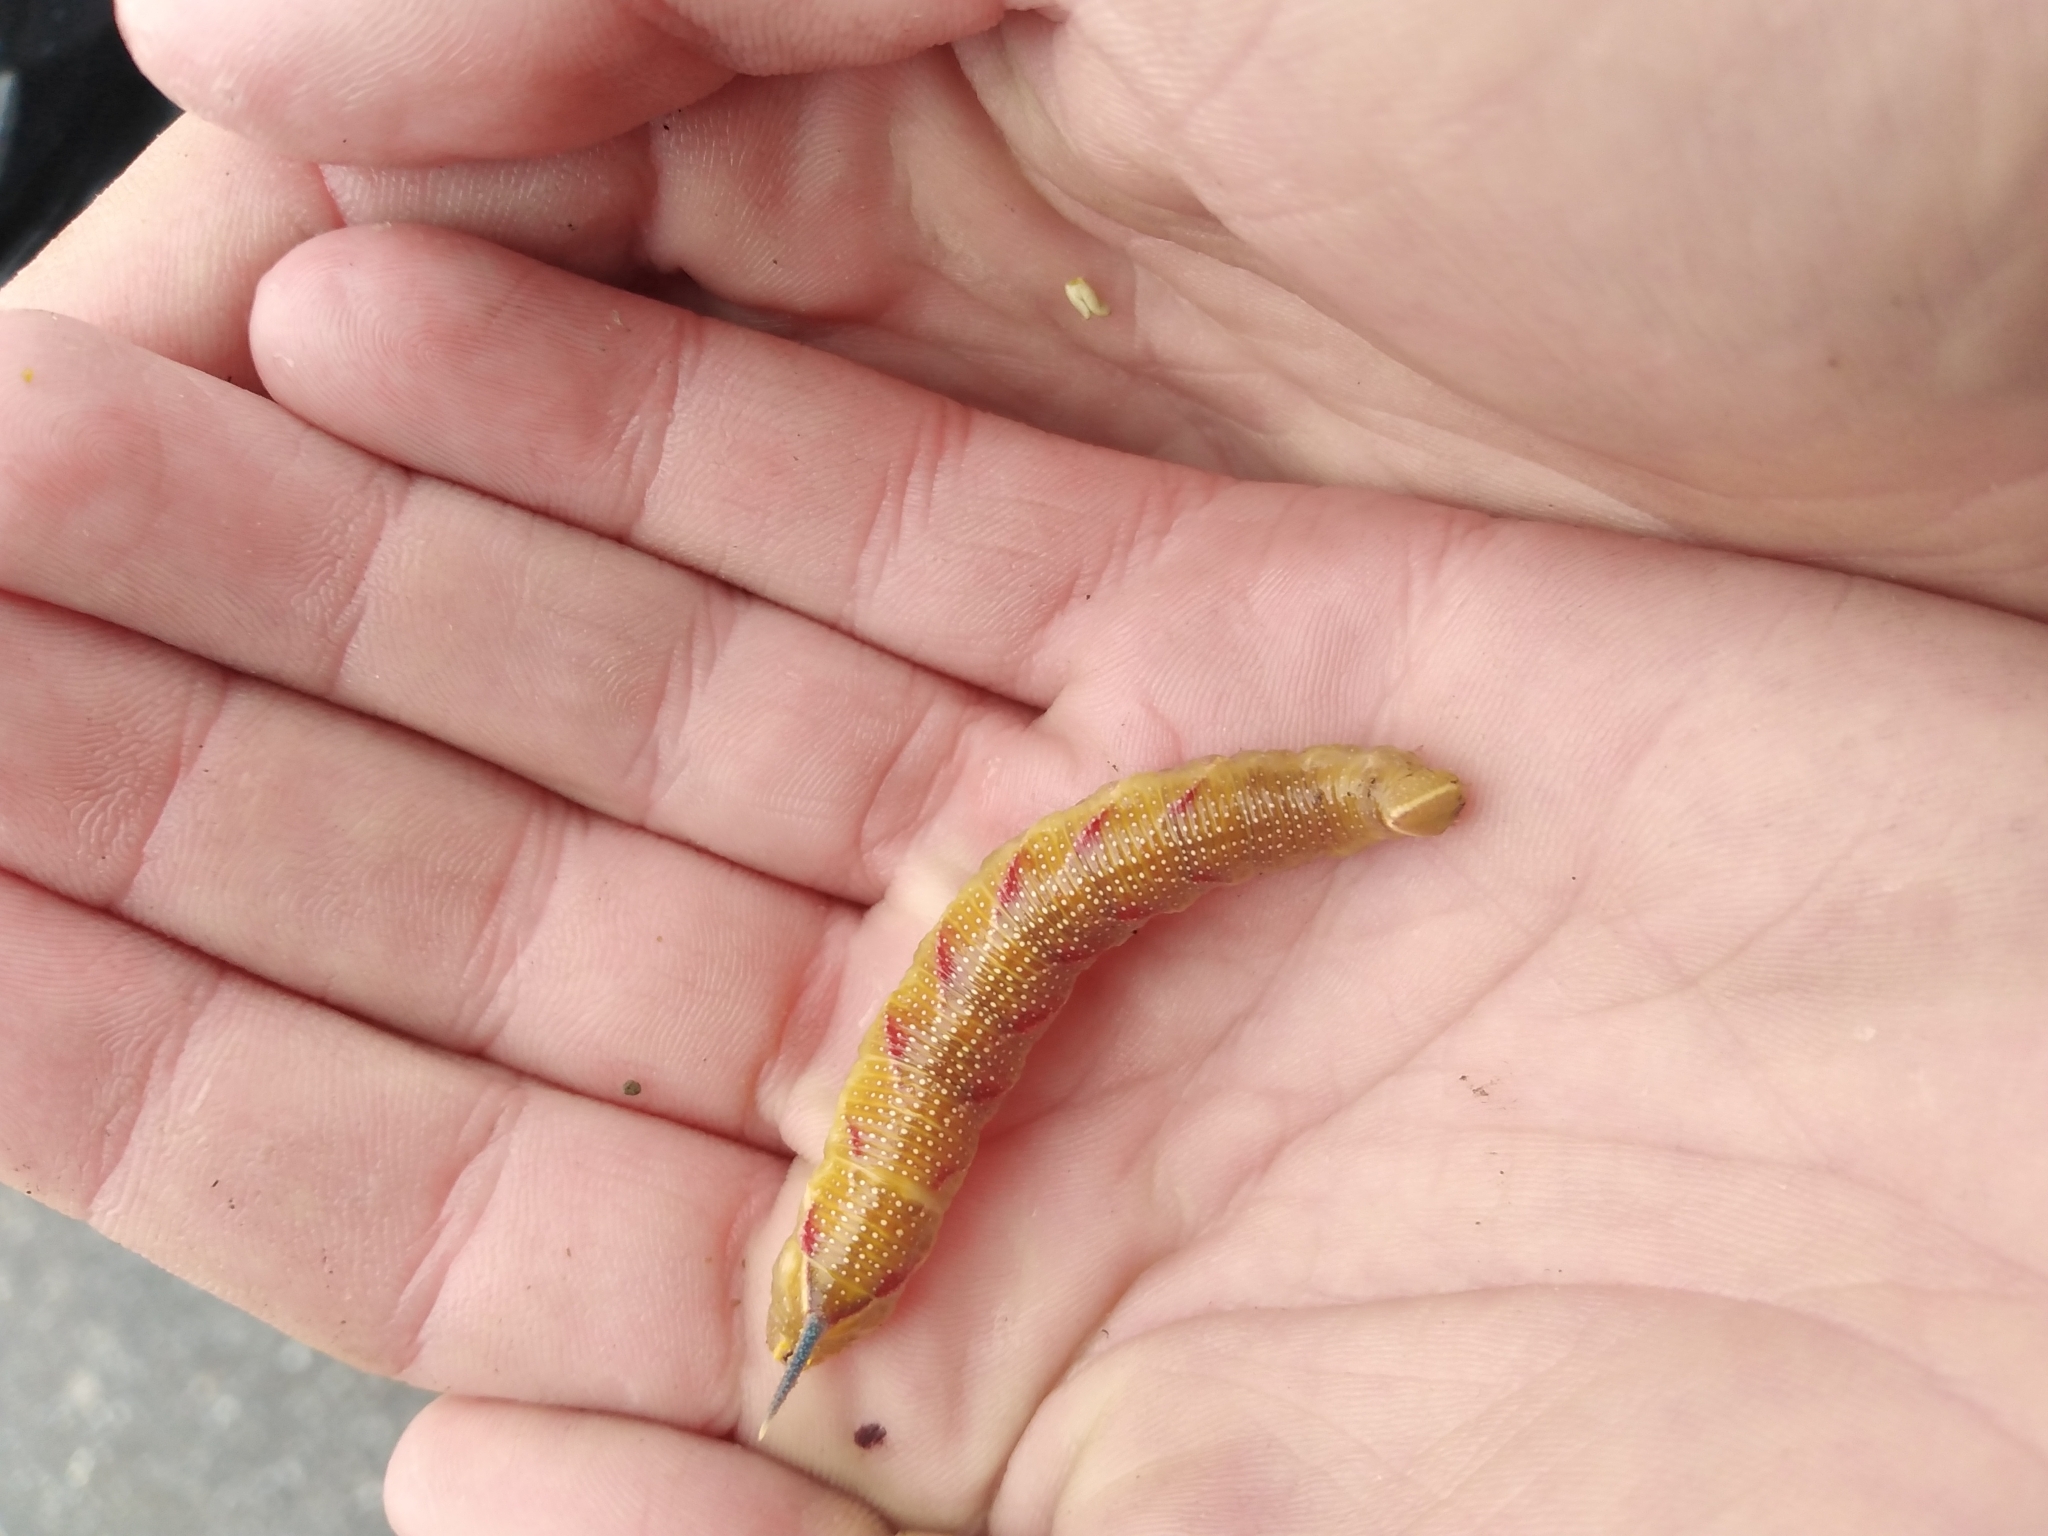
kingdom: Animalia
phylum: Arthropoda
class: Insecta
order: Lepidoptera
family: Sphingidae
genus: Mimas
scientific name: Mimas tiliae
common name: Lime hawk-moth
